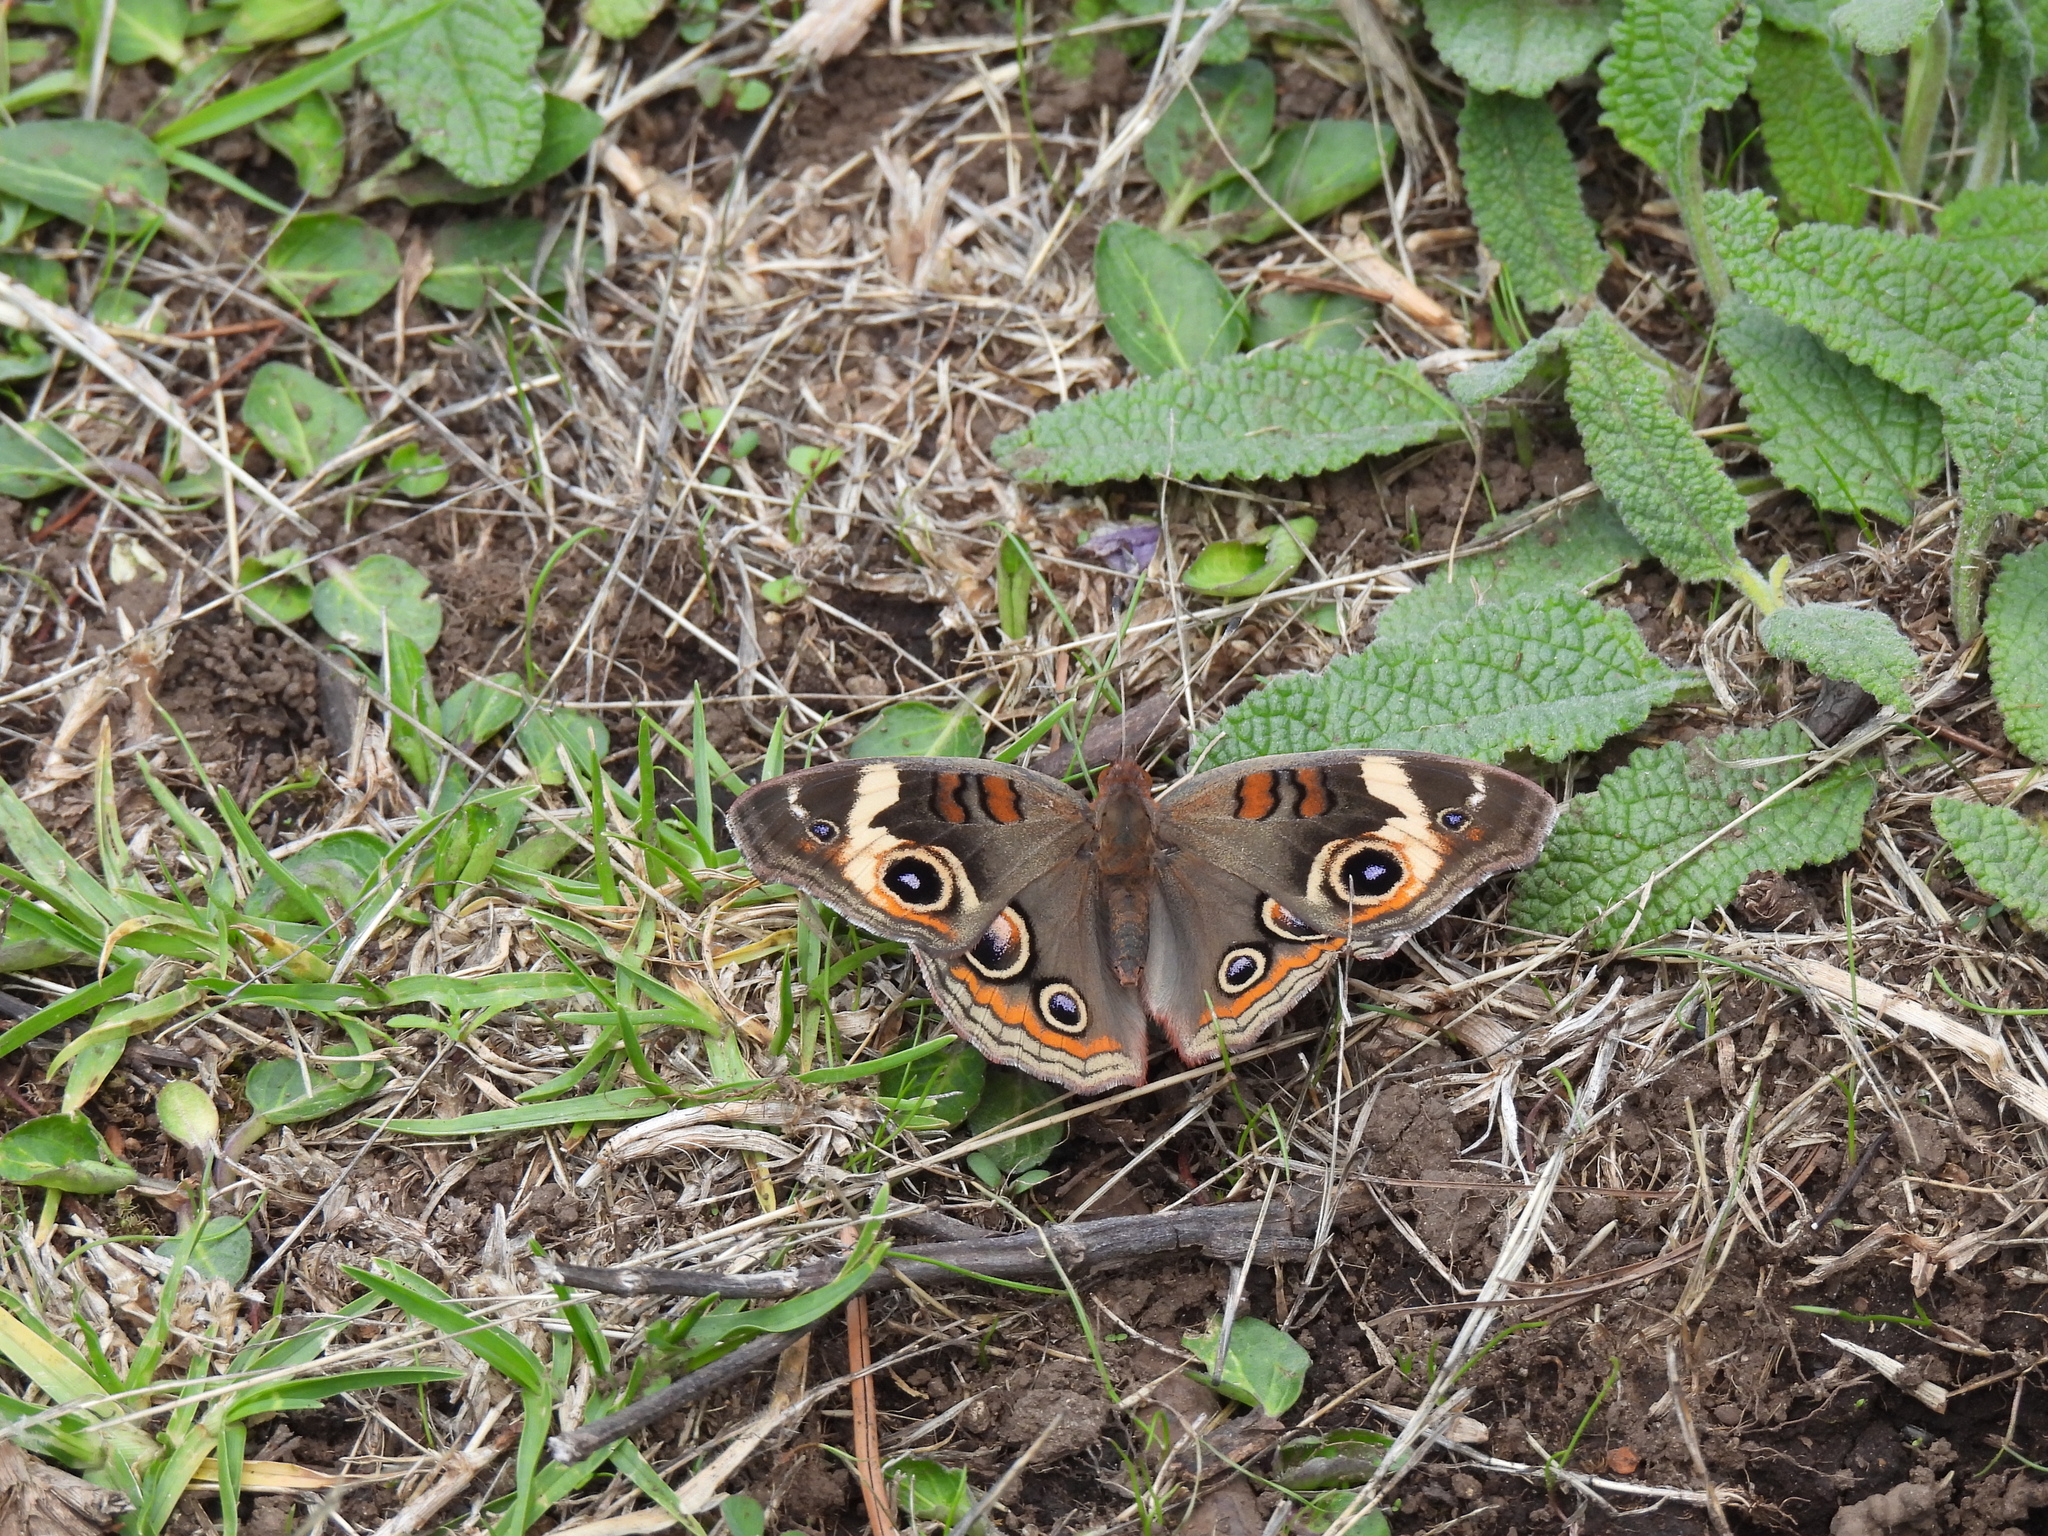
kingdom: Animalia
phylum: Arthropoda
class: Insecta
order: Lepidoptera
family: Nymphalidae
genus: Junonia
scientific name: Junonia coenia
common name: Common buckeye
